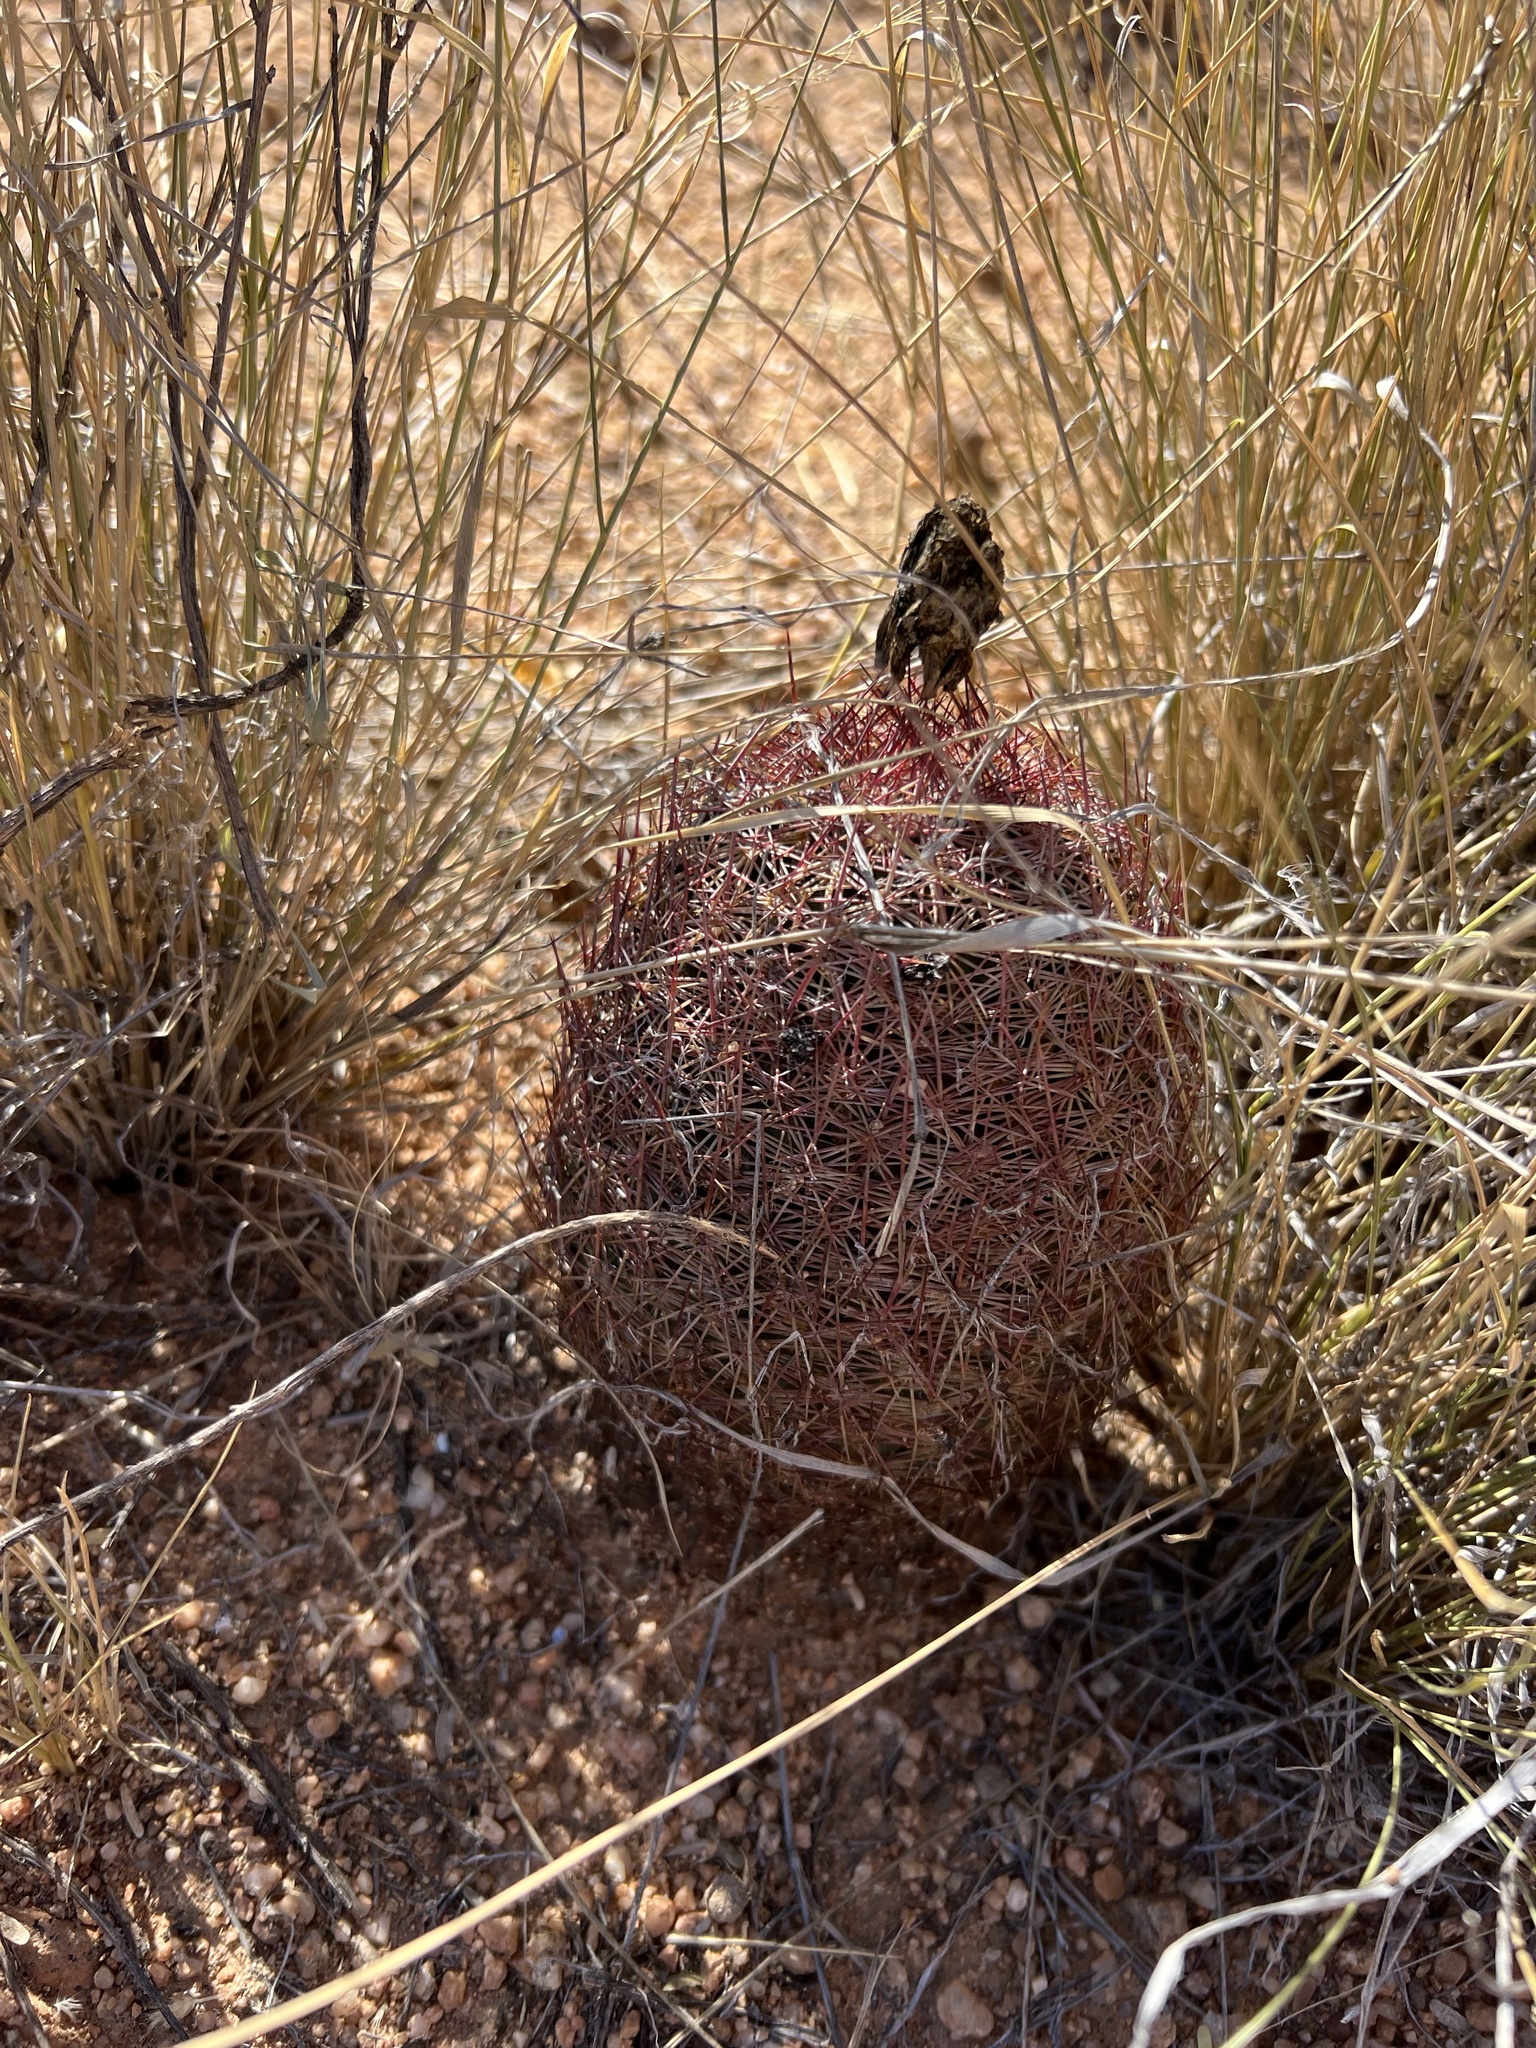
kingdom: Plantae
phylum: Tracheophyta
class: Magnoliopsida
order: Caryophyllales
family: Cactaceae
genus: Sclerocactus
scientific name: Sclerocactus johnsonii
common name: Eight-spine fishhook cactus
